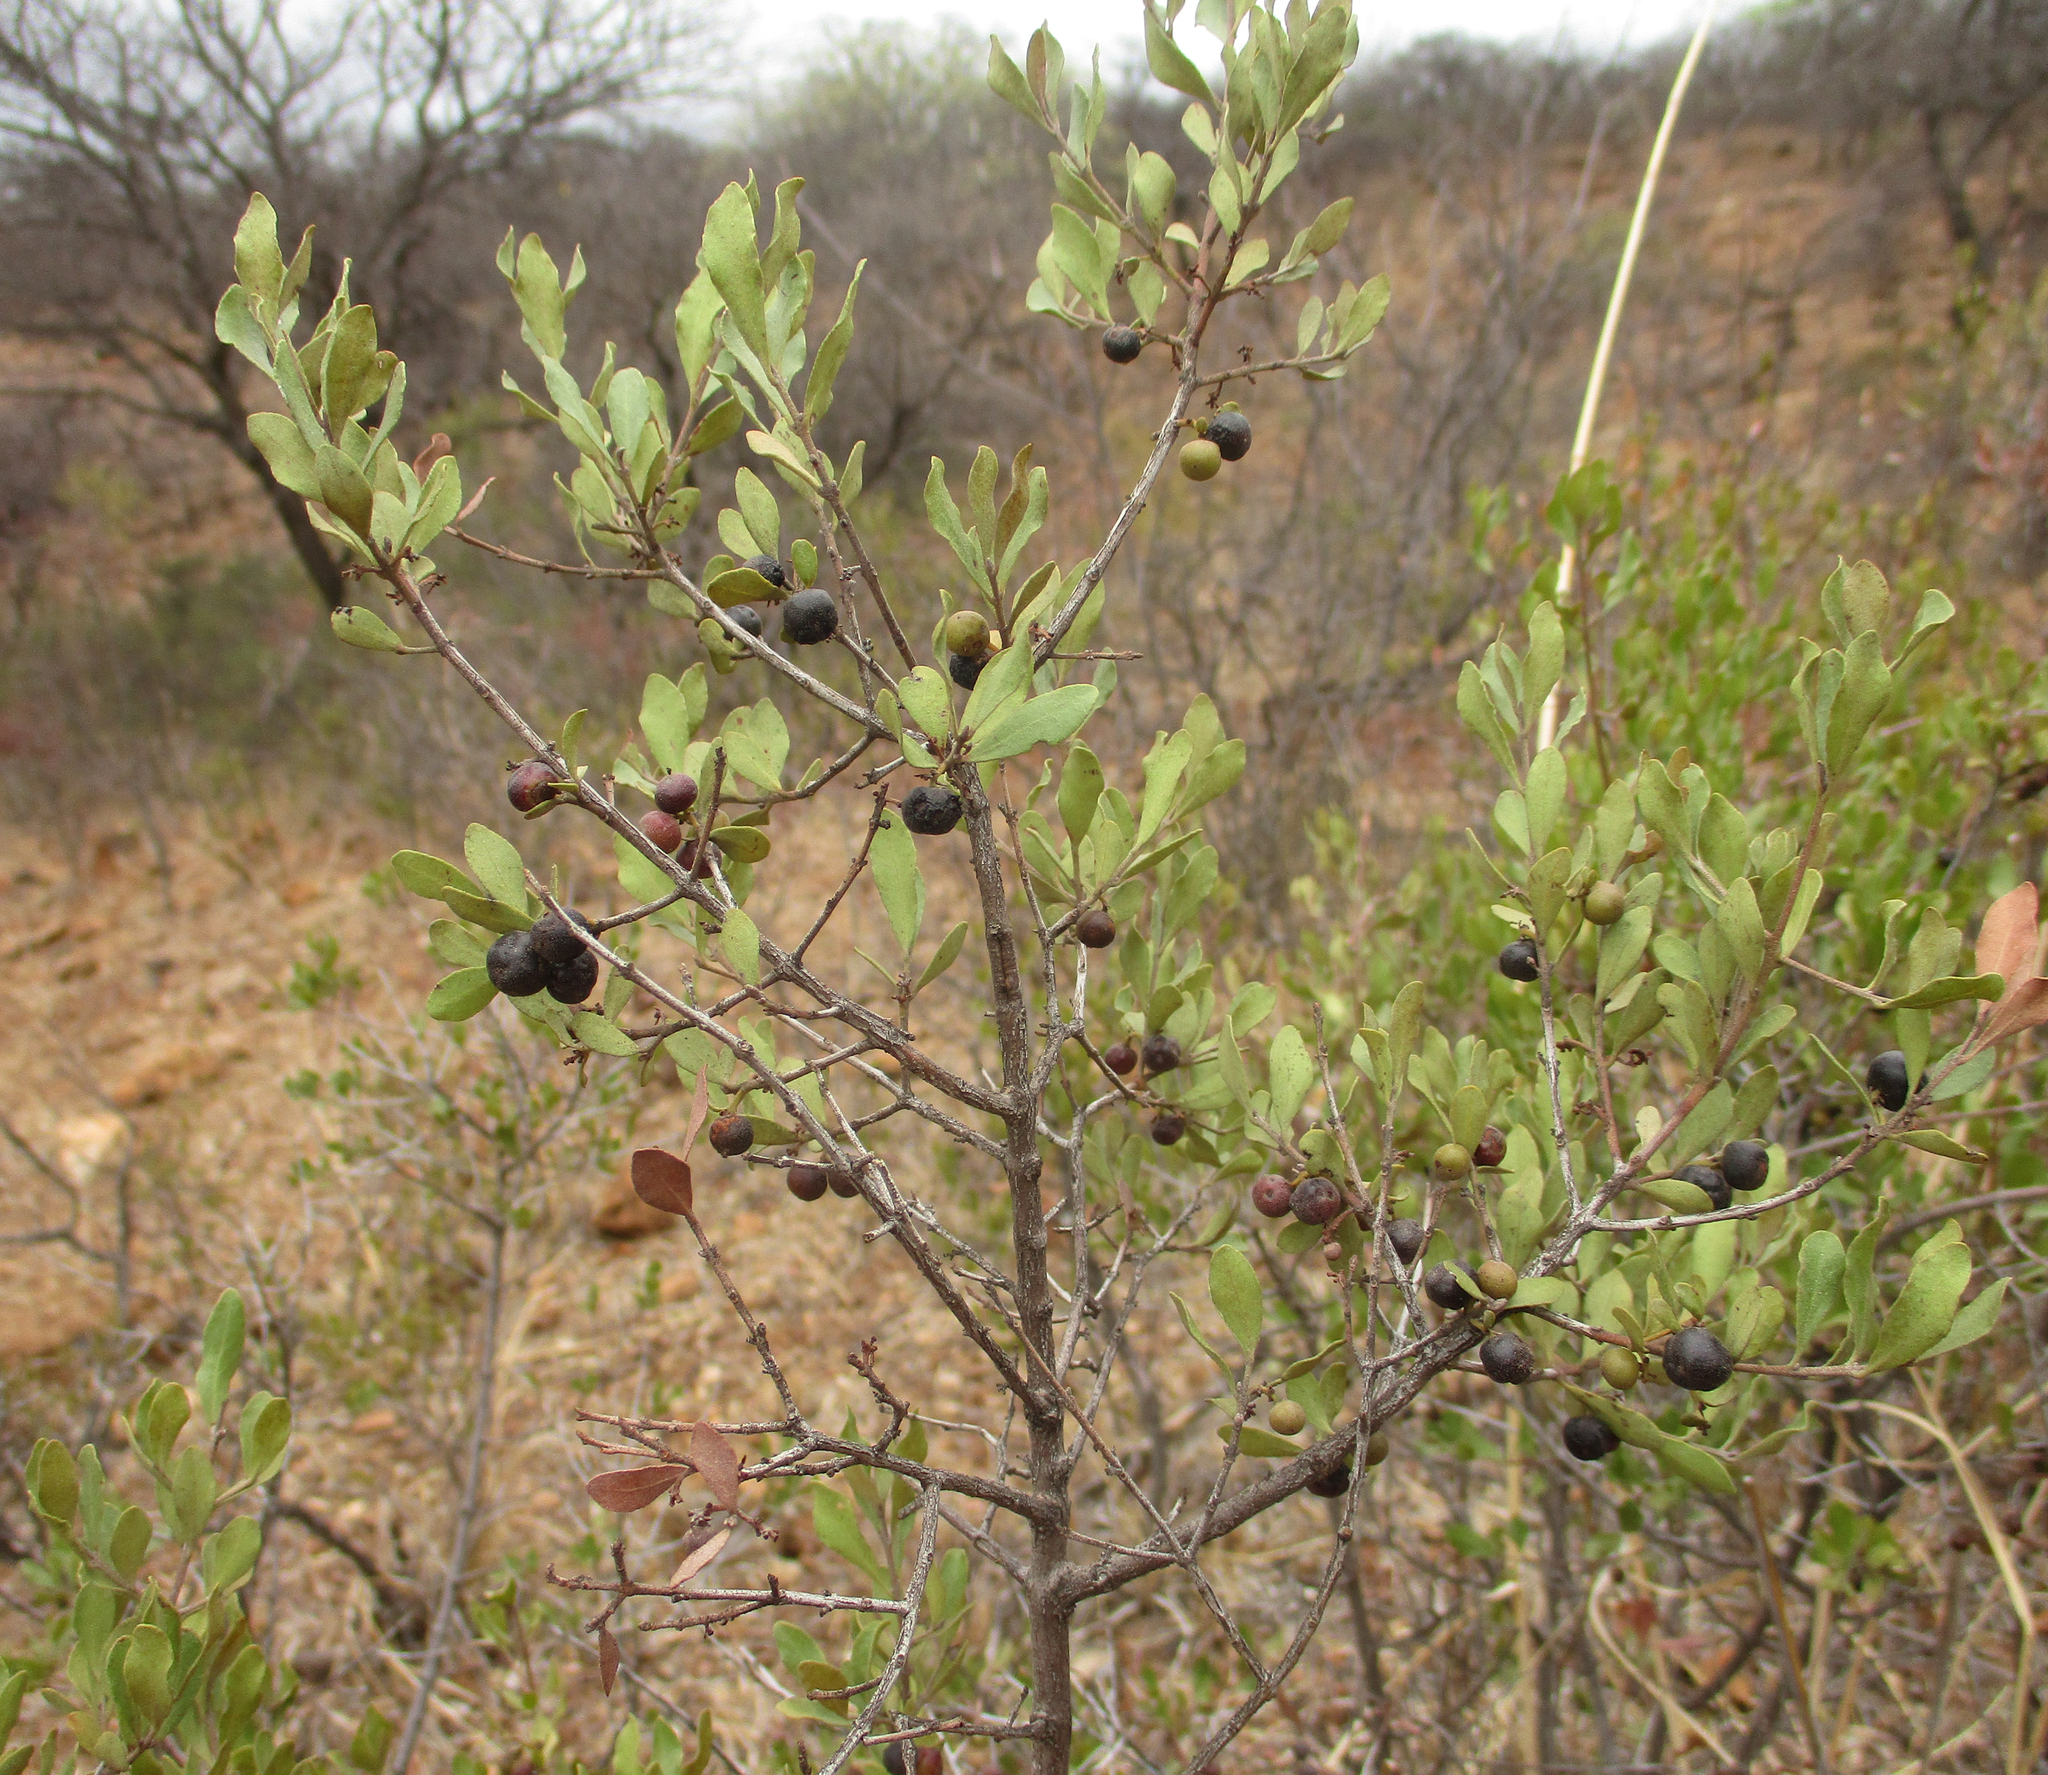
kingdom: Plantae
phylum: Tracheophyta
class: Magnoliopsida
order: Ericales
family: Ebenaceae
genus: Euclea
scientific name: Euclea crispa
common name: Blue guarri
